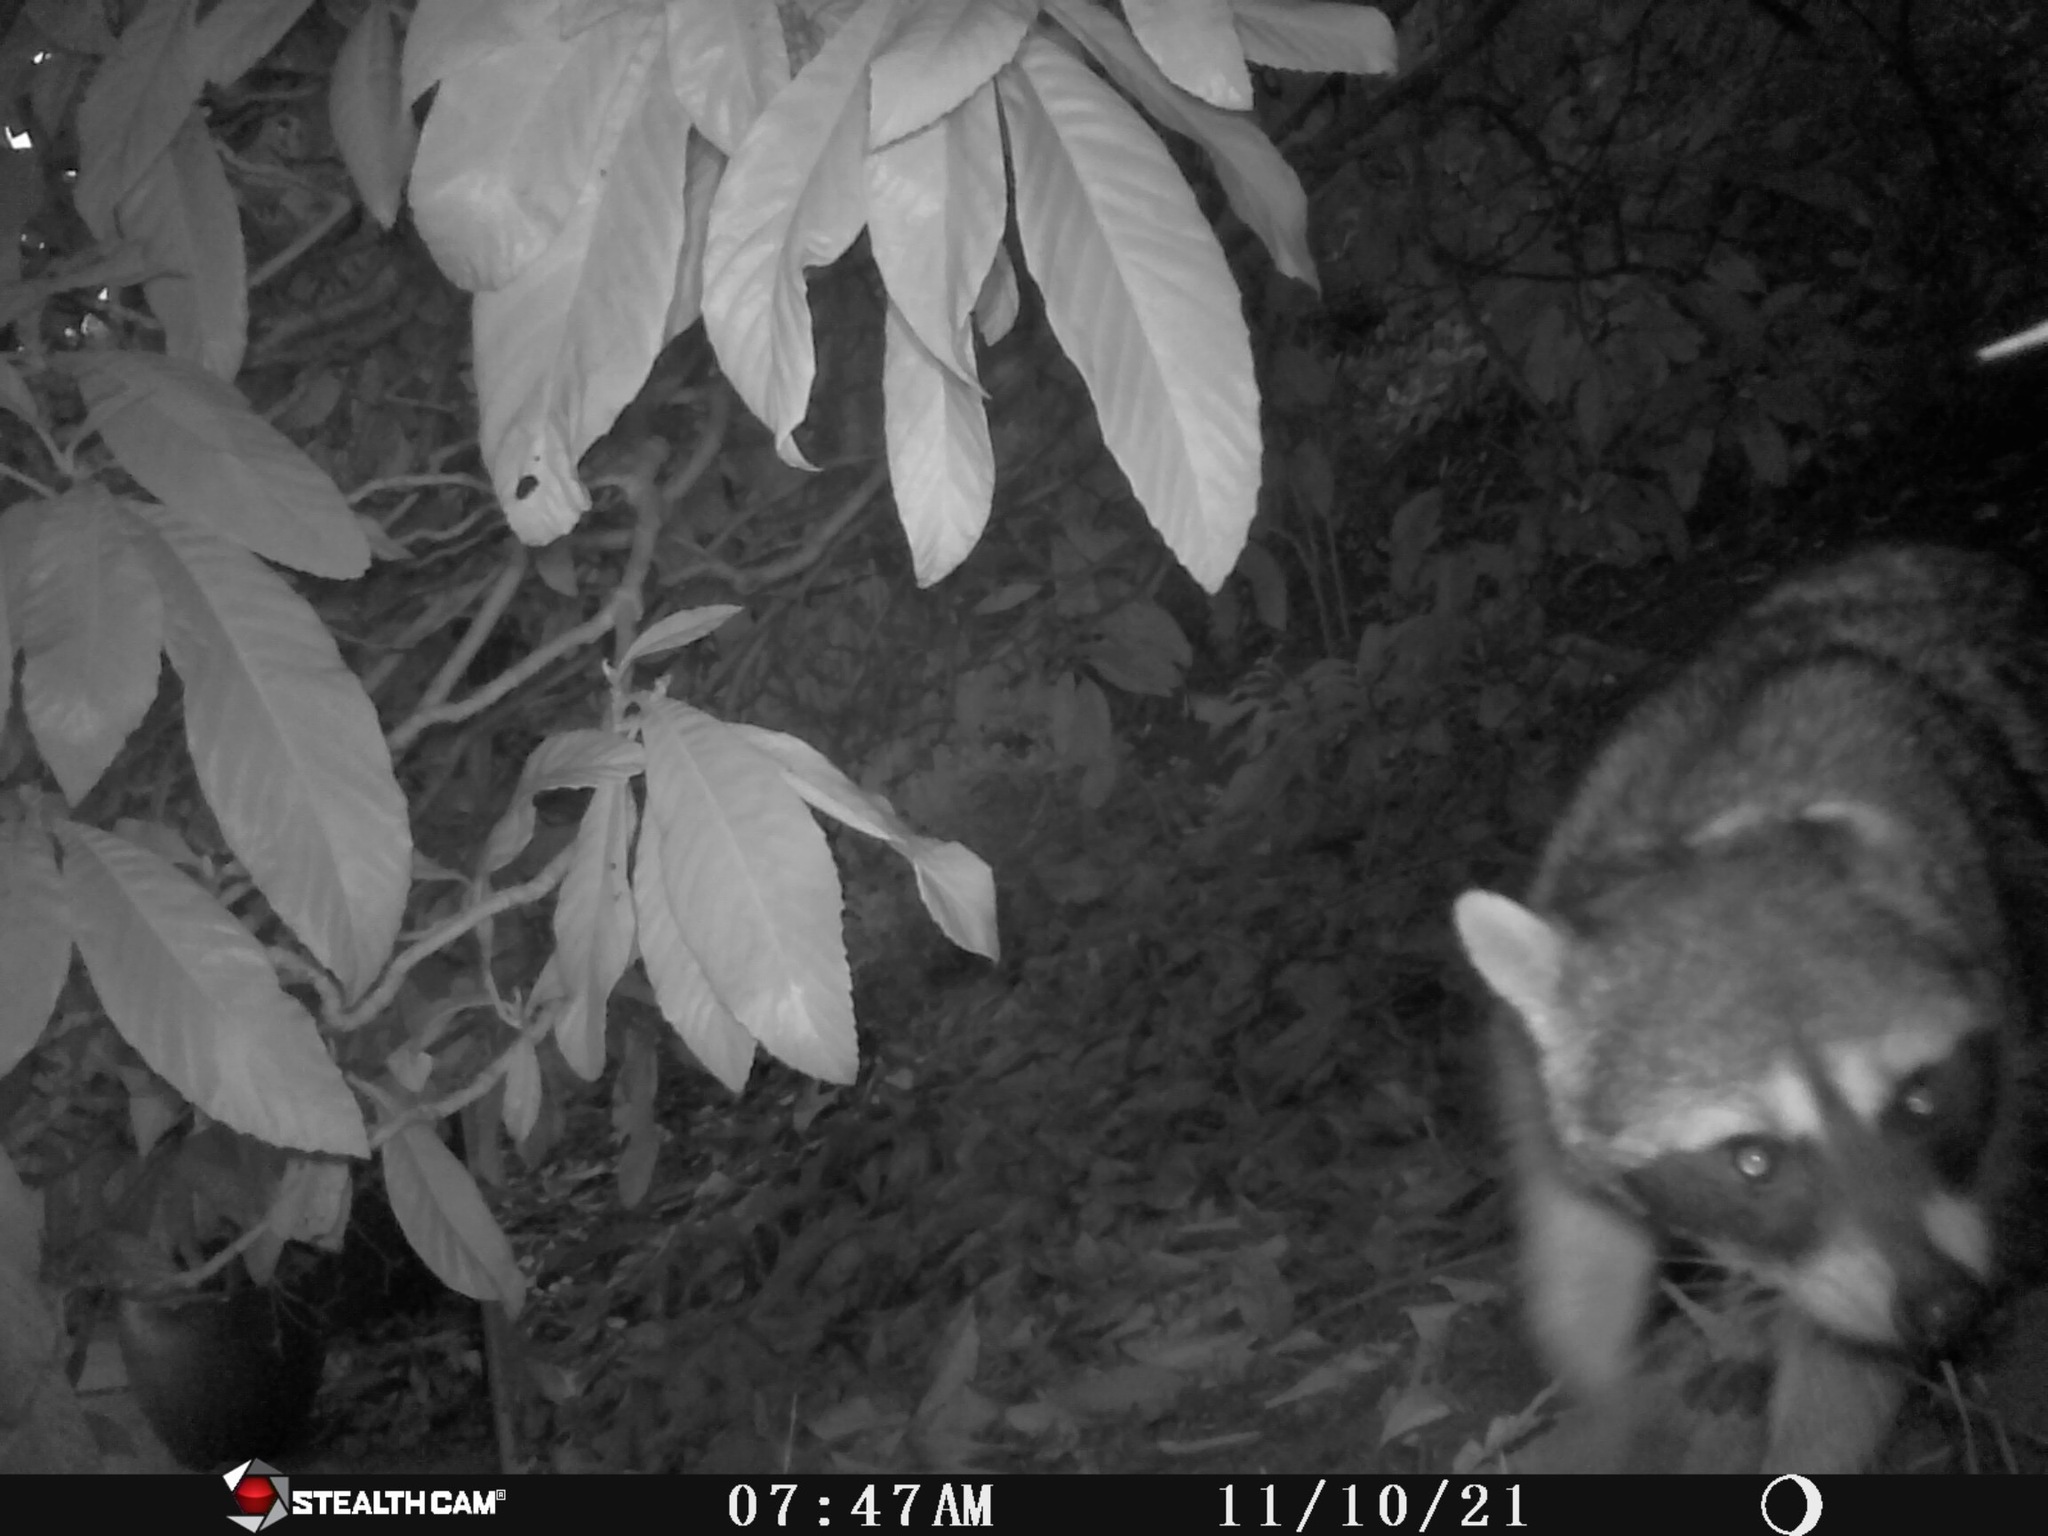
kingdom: Animalia
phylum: Chordata
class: Mammalia
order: Carnivora
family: Procyonidae
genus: Procyon
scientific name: Procyon lotor
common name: Raccoon
